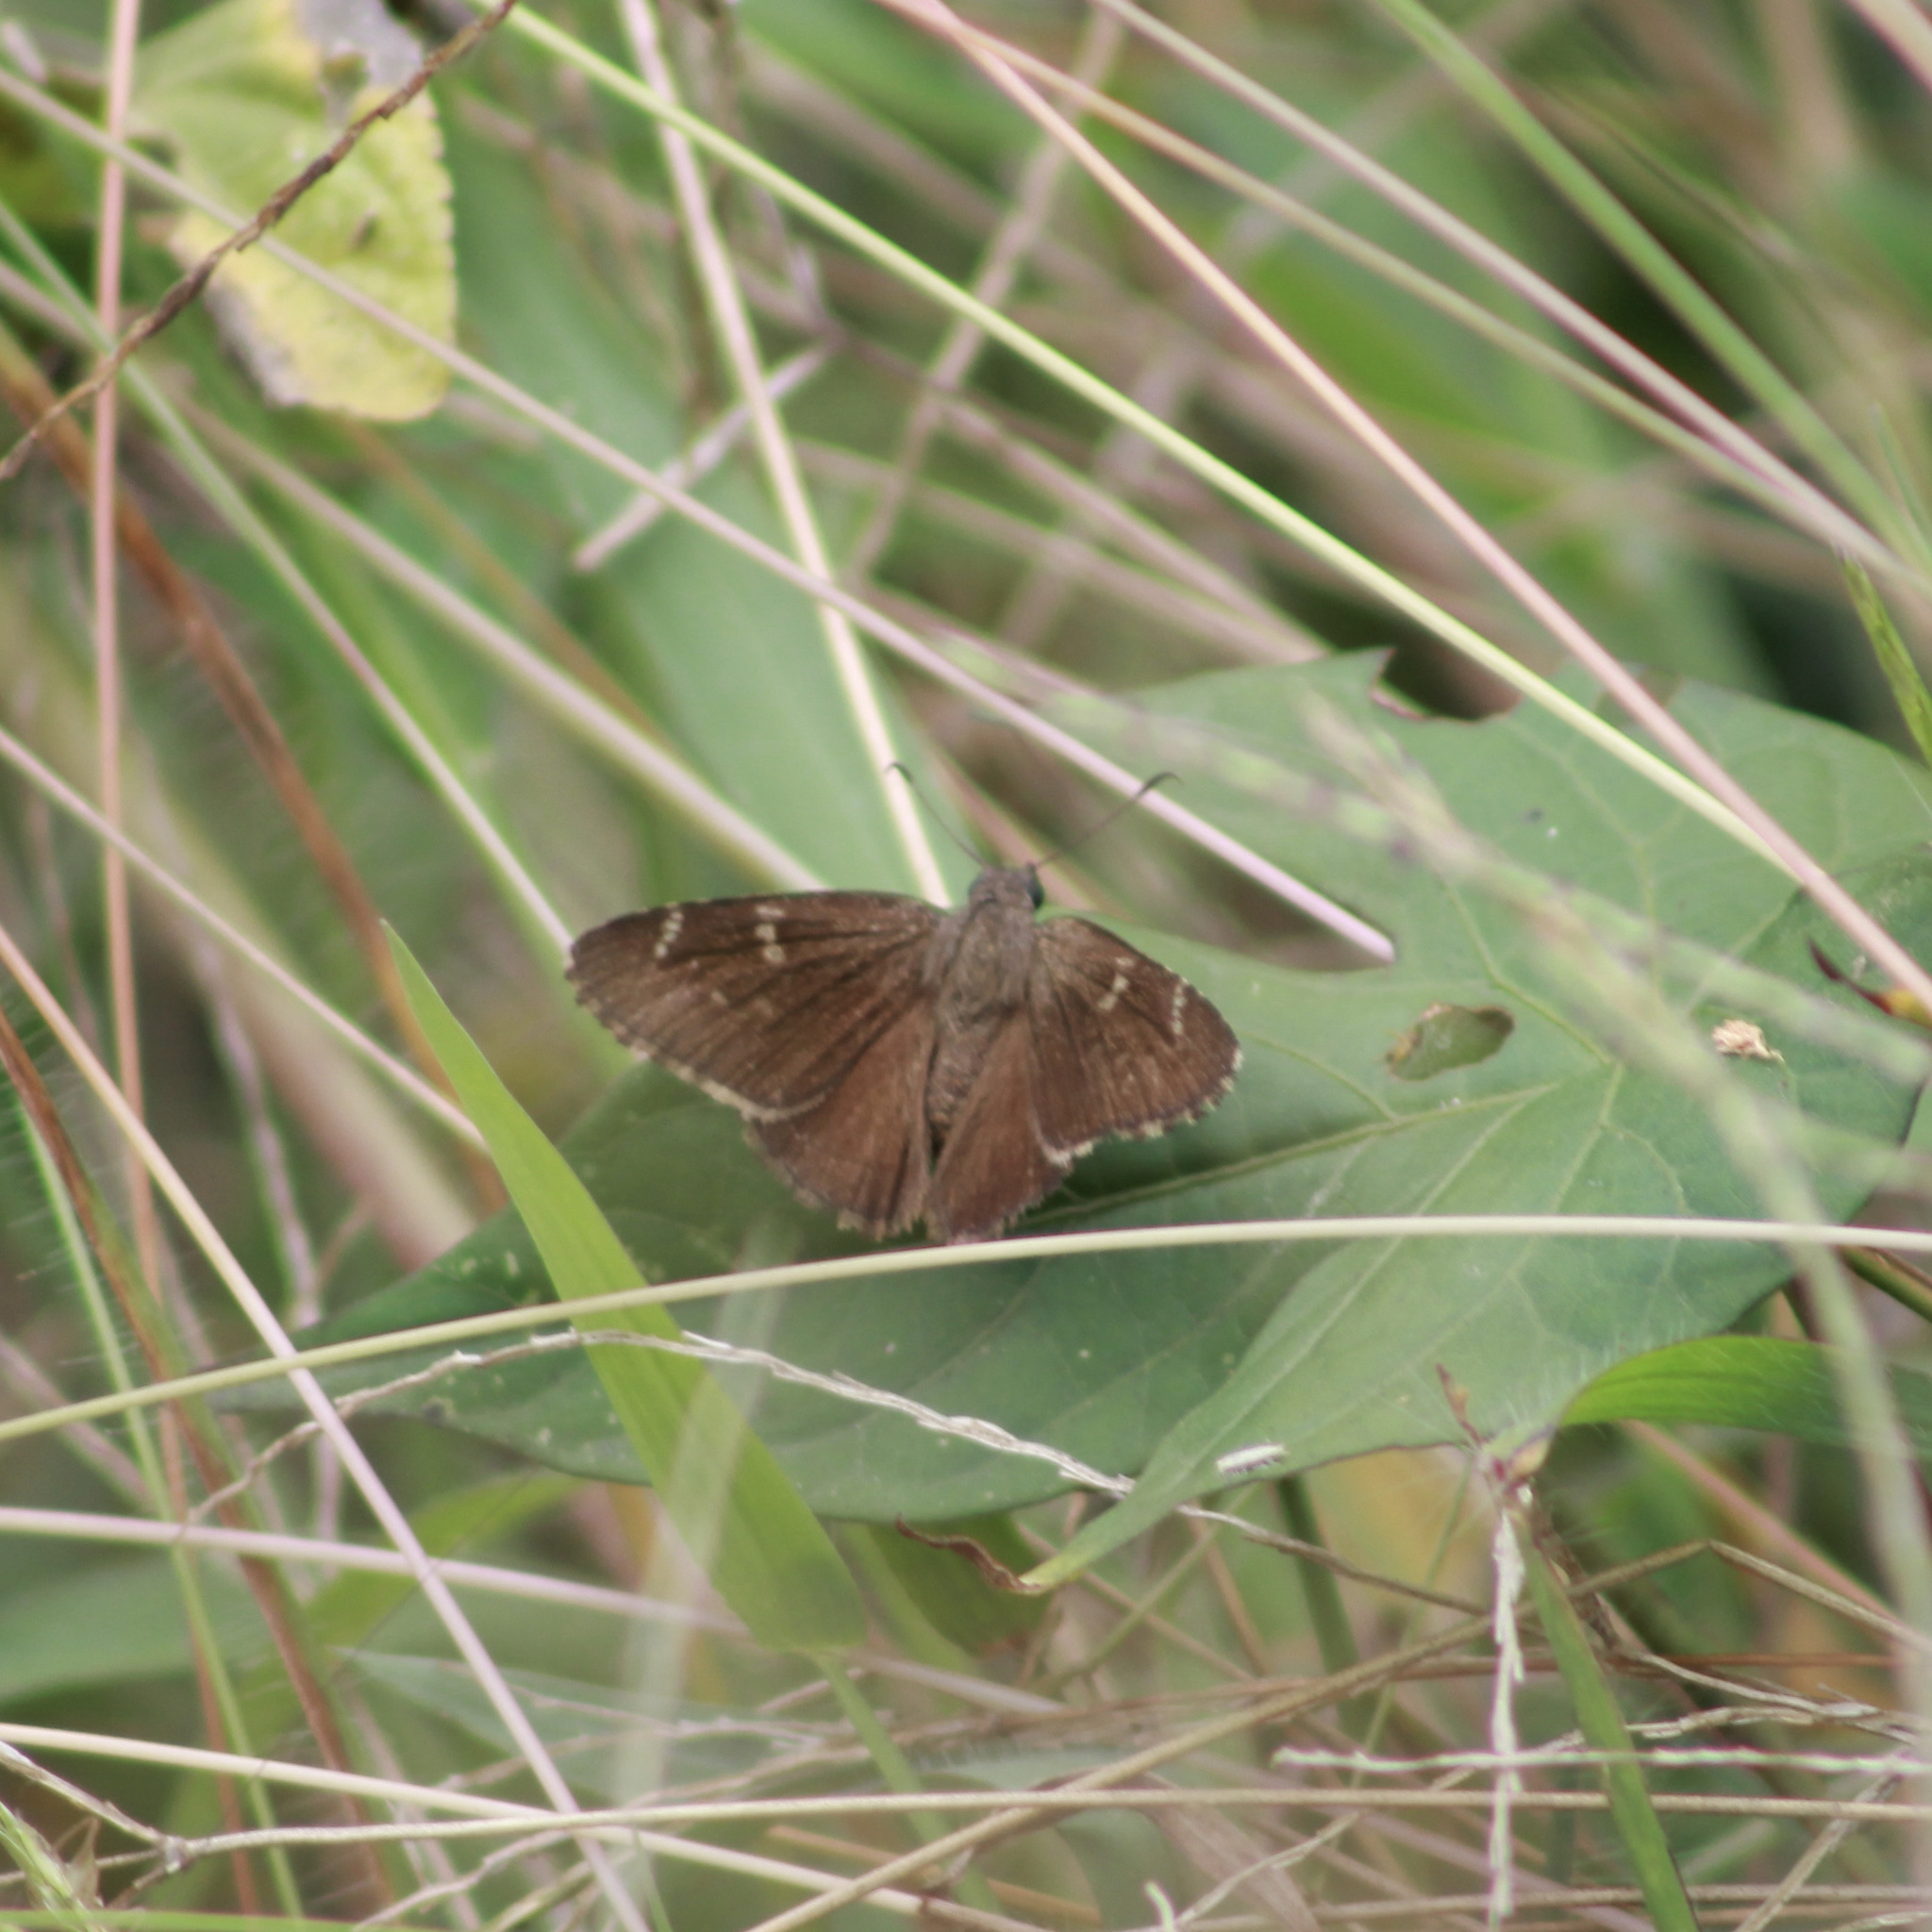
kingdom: Animalia
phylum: Arthropoda
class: Insecta
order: Lepidoptera
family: Hesperiidae
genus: Caicella
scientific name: Caicella calchas
